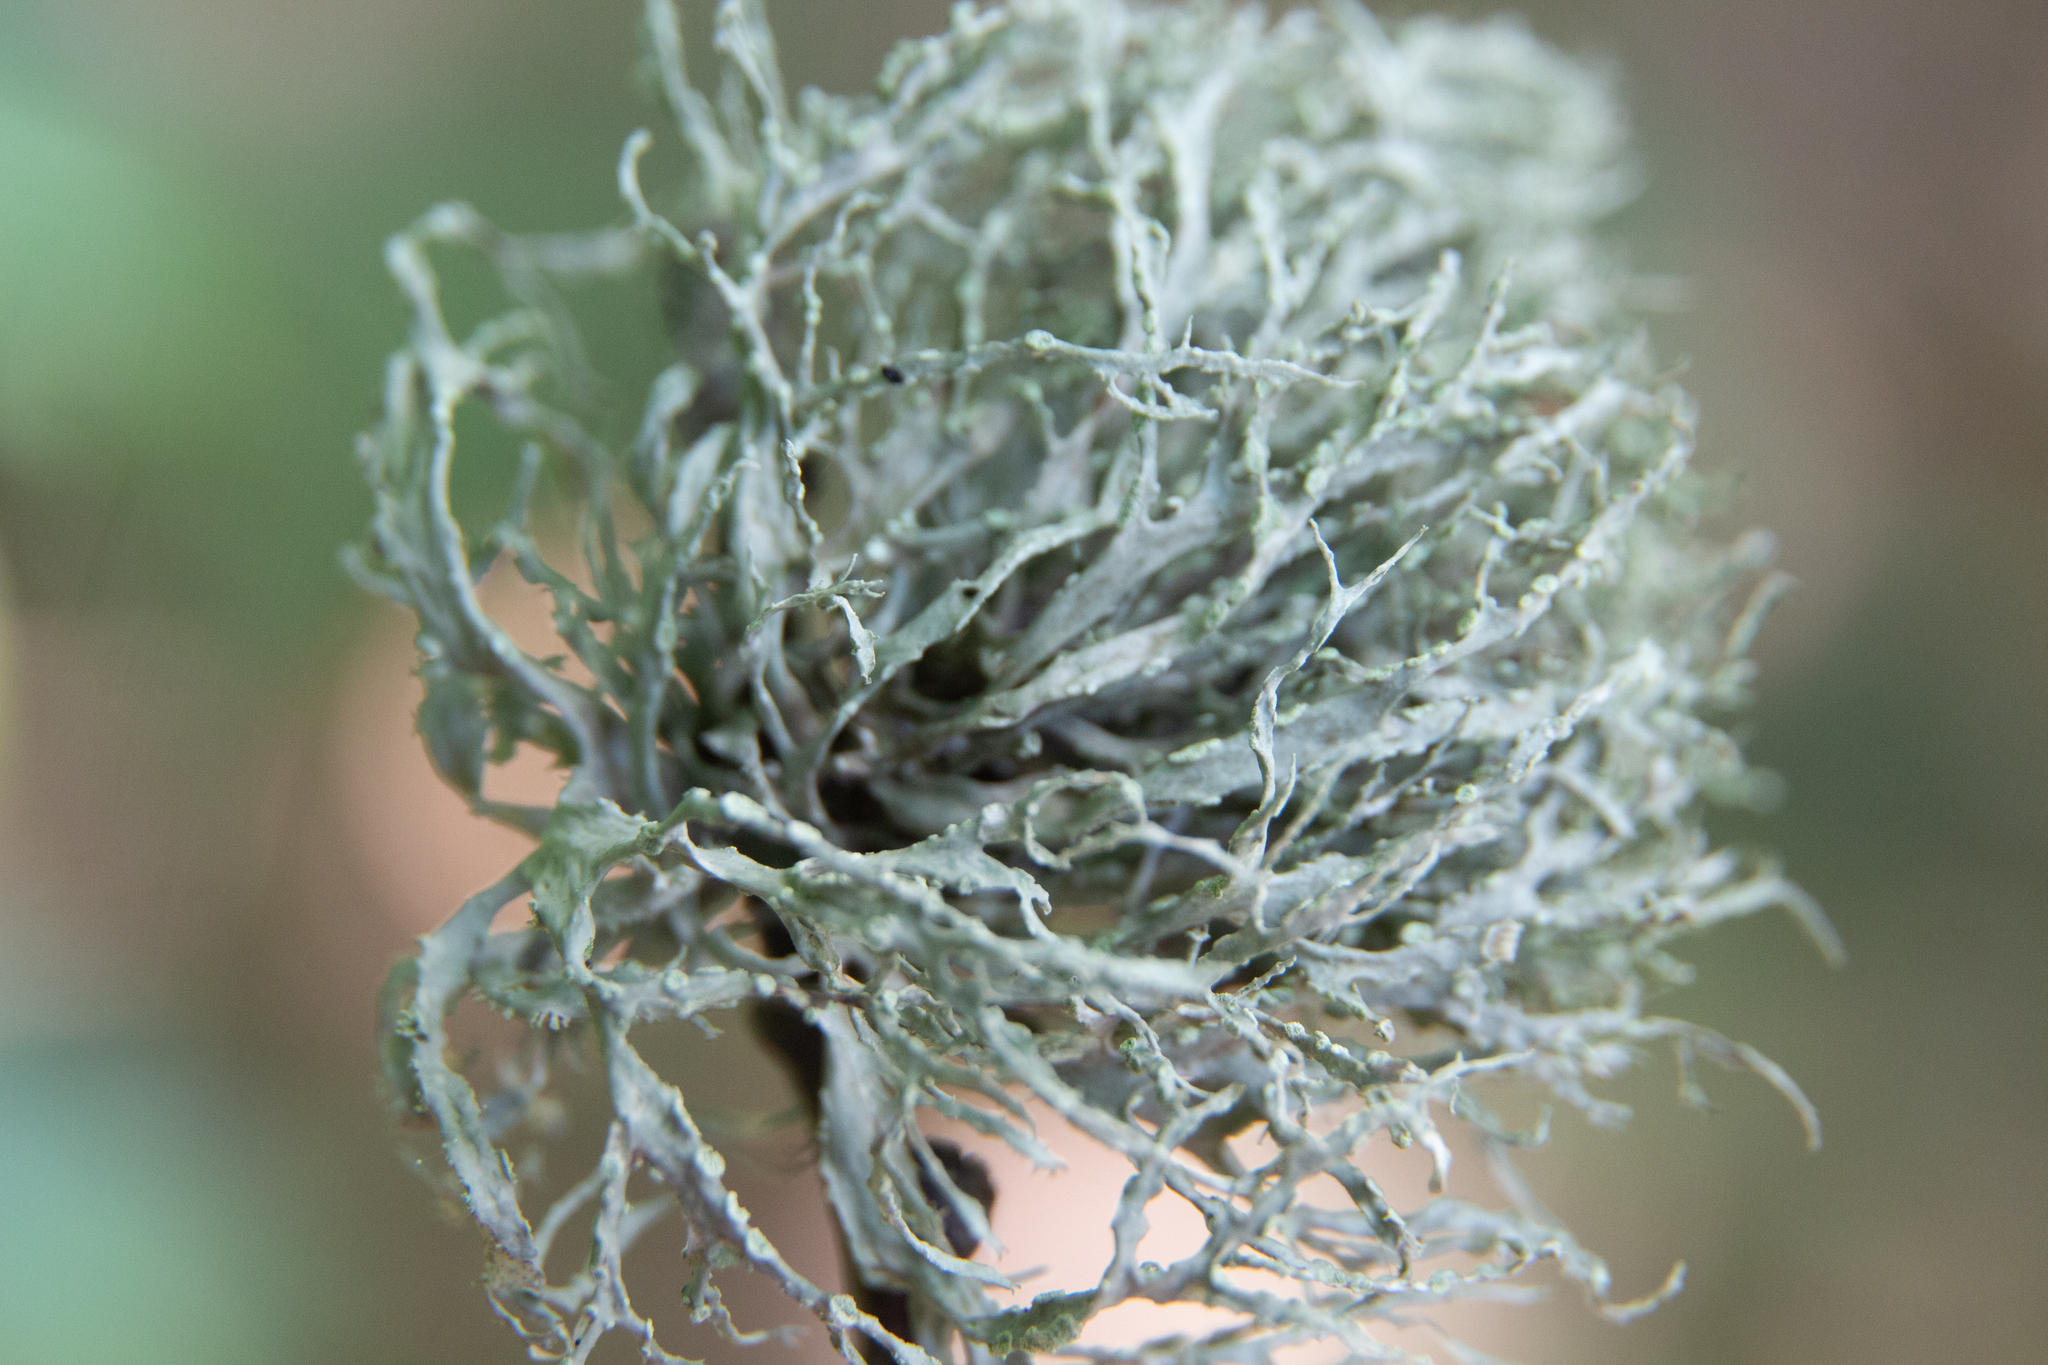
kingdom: Fungi
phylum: Ascomycota
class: Lecanoromycetes
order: Lecanorales
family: Ramalinaceae
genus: Ramalina
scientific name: Ramalina farinacea
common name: Farinose cartilage lichen
